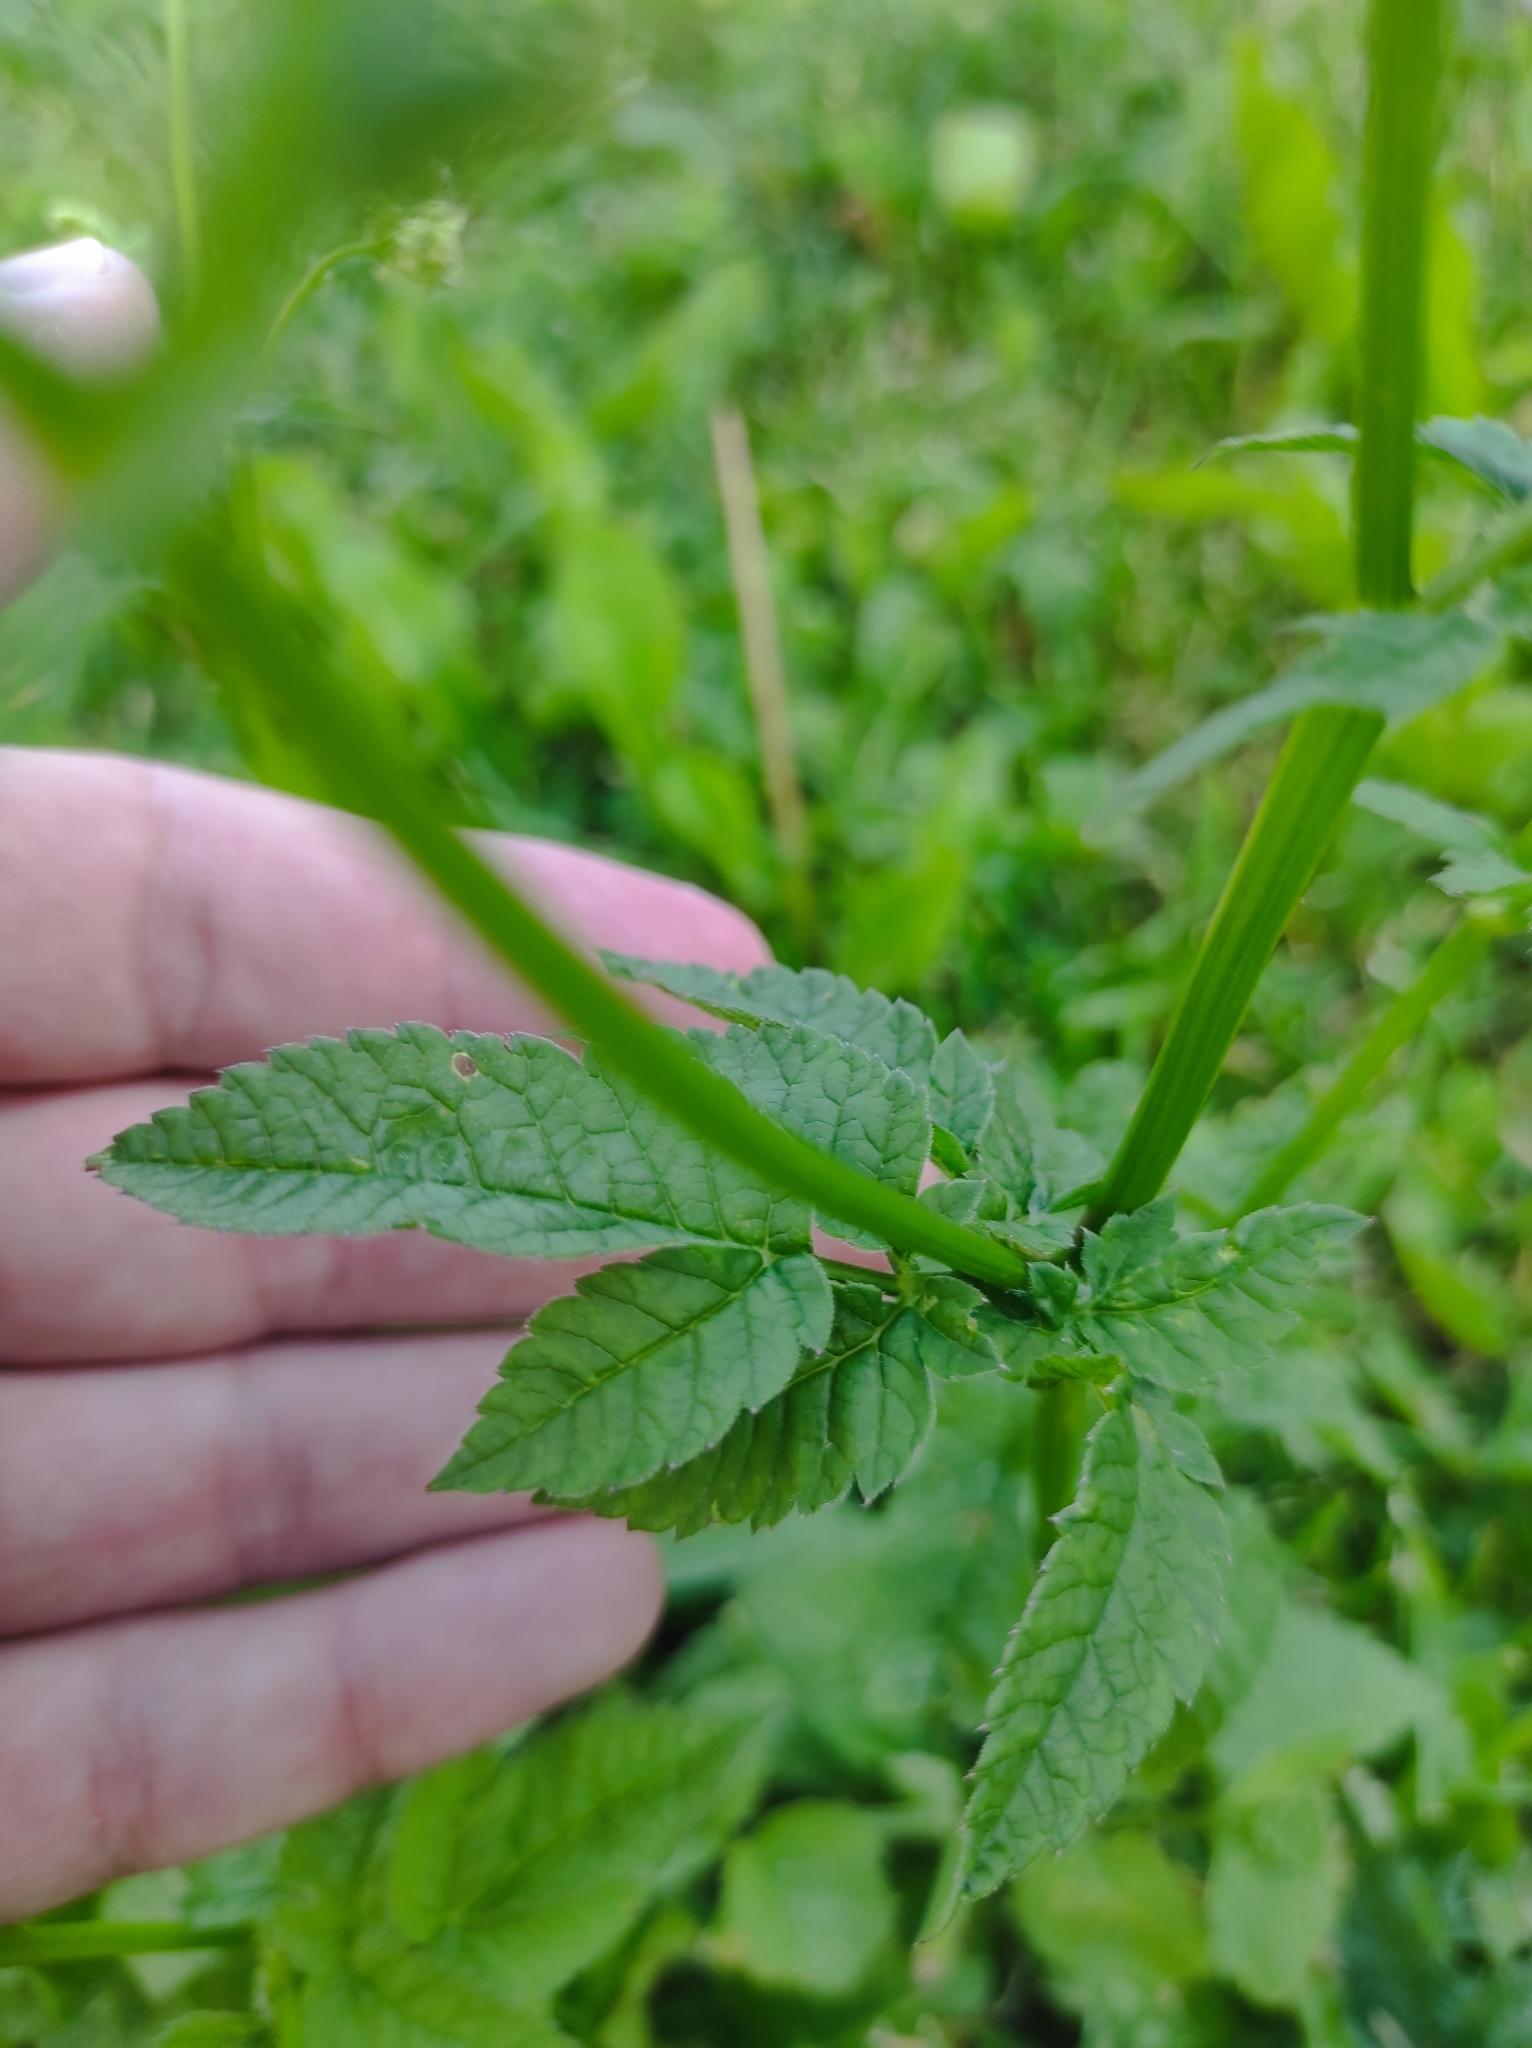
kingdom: Plantae
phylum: Tracheophyta
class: Magnoliopsida
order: Apiales
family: Apiaceae
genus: Chaerophyllum
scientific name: Chaerophyllum aromaticum
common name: Broadleaf chervil
